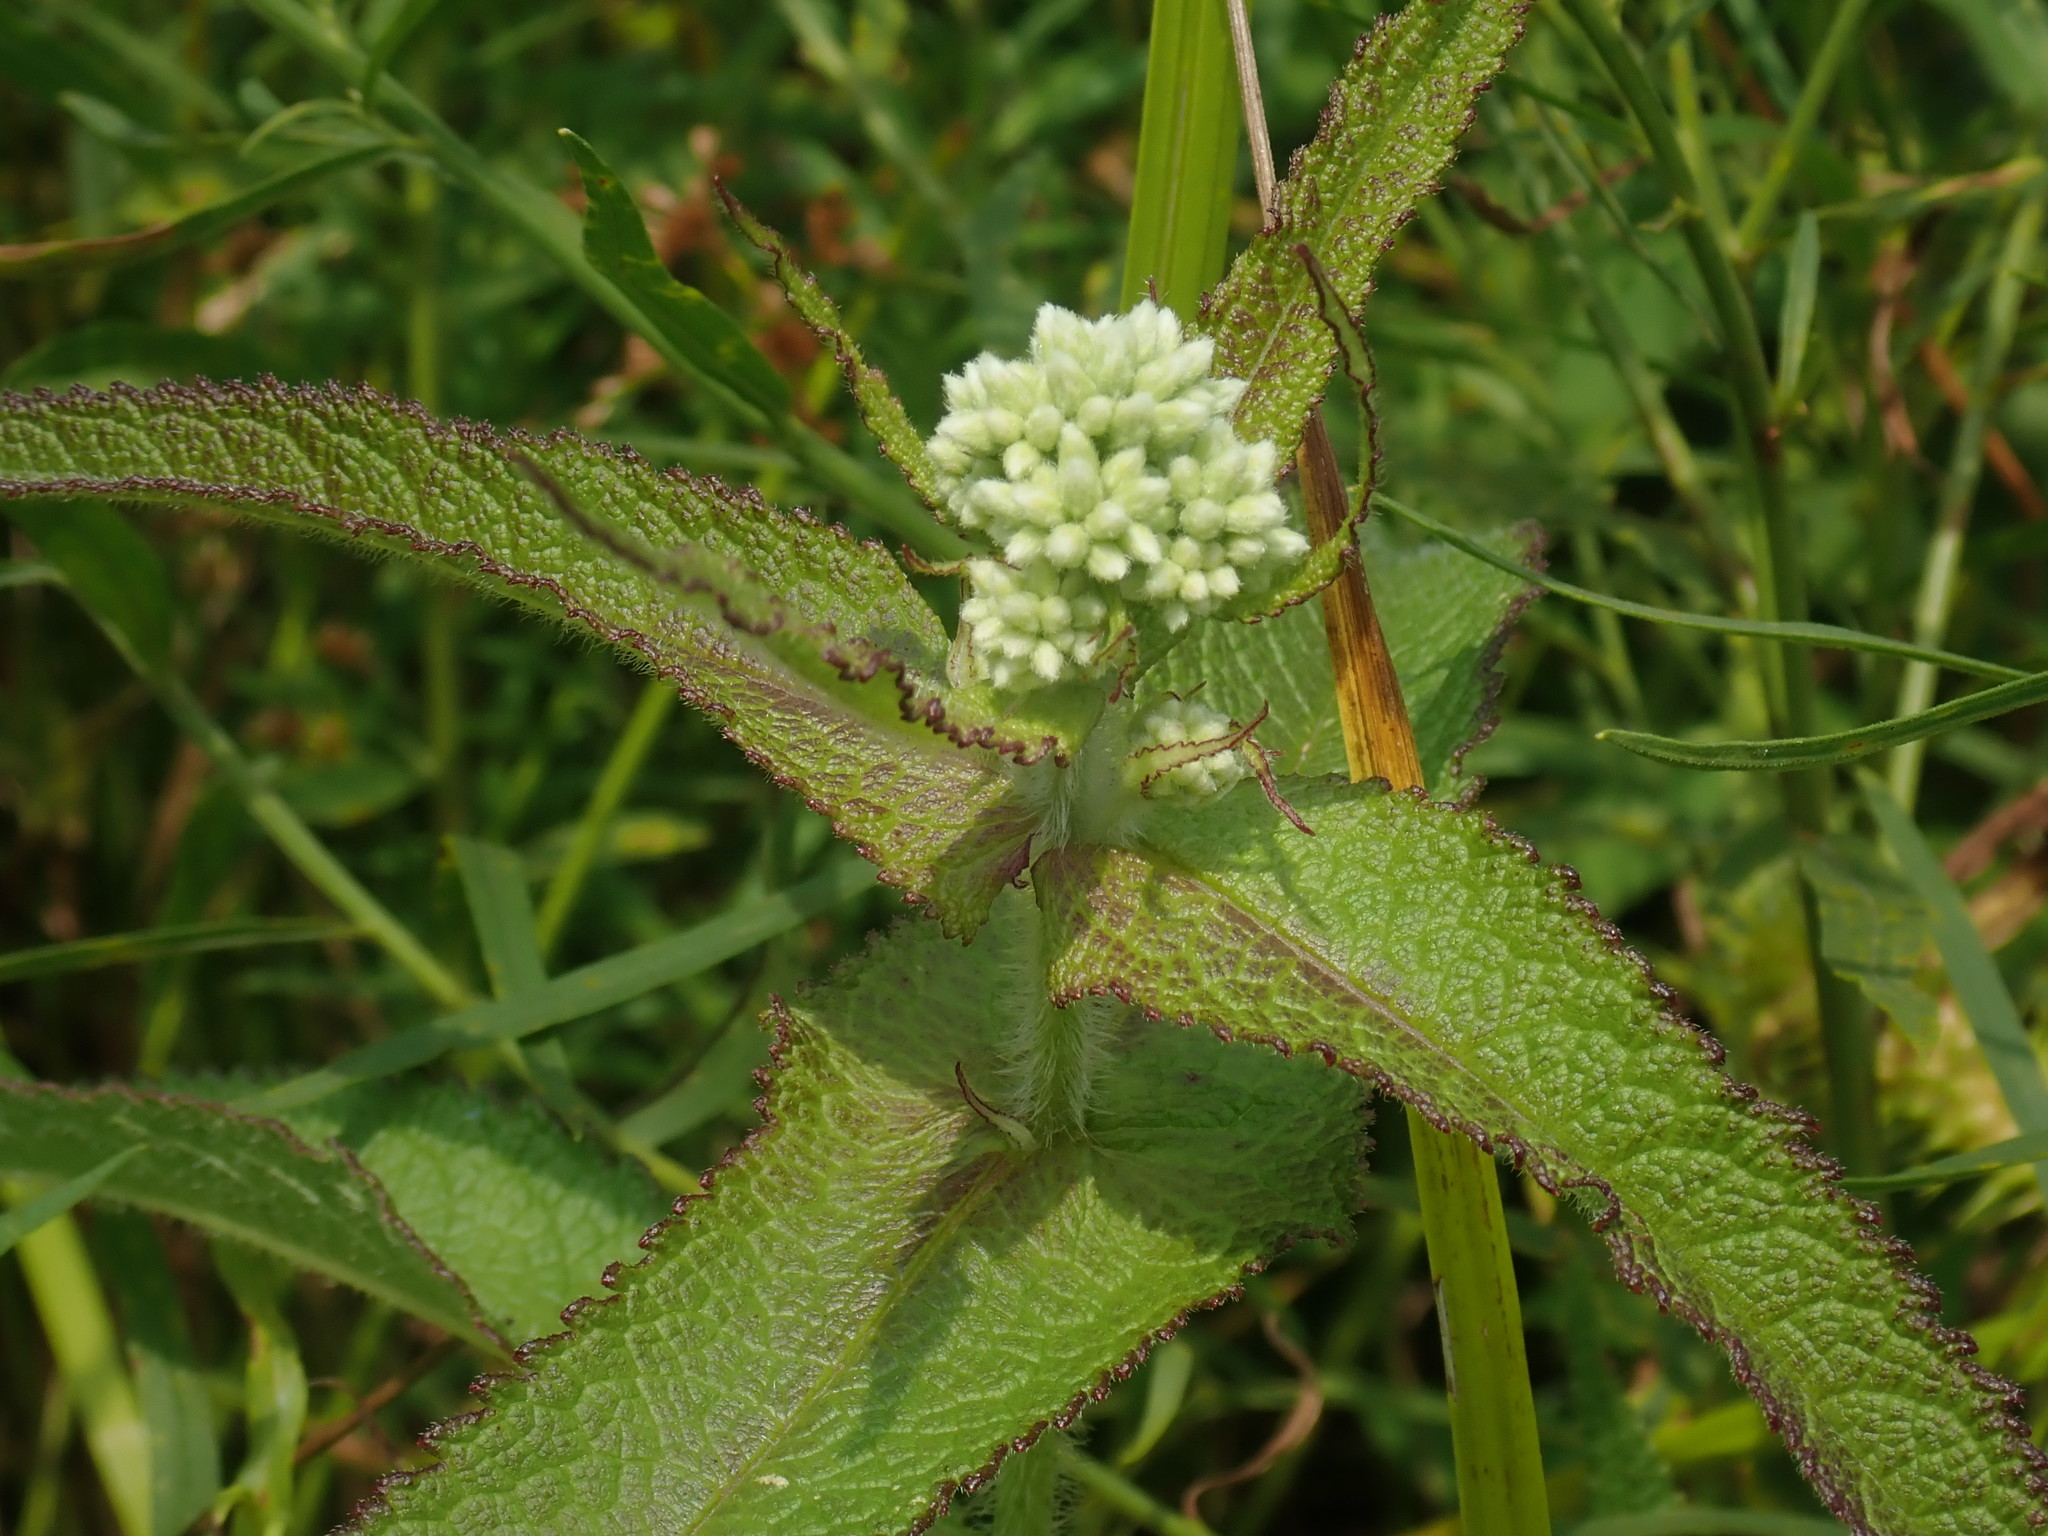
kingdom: Plantae
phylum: Tracheophyta
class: Magnoliopsida
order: Asterales
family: Asteraceae
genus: Eupatorium
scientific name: Eupatorium perfoliatum
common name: Boneset
